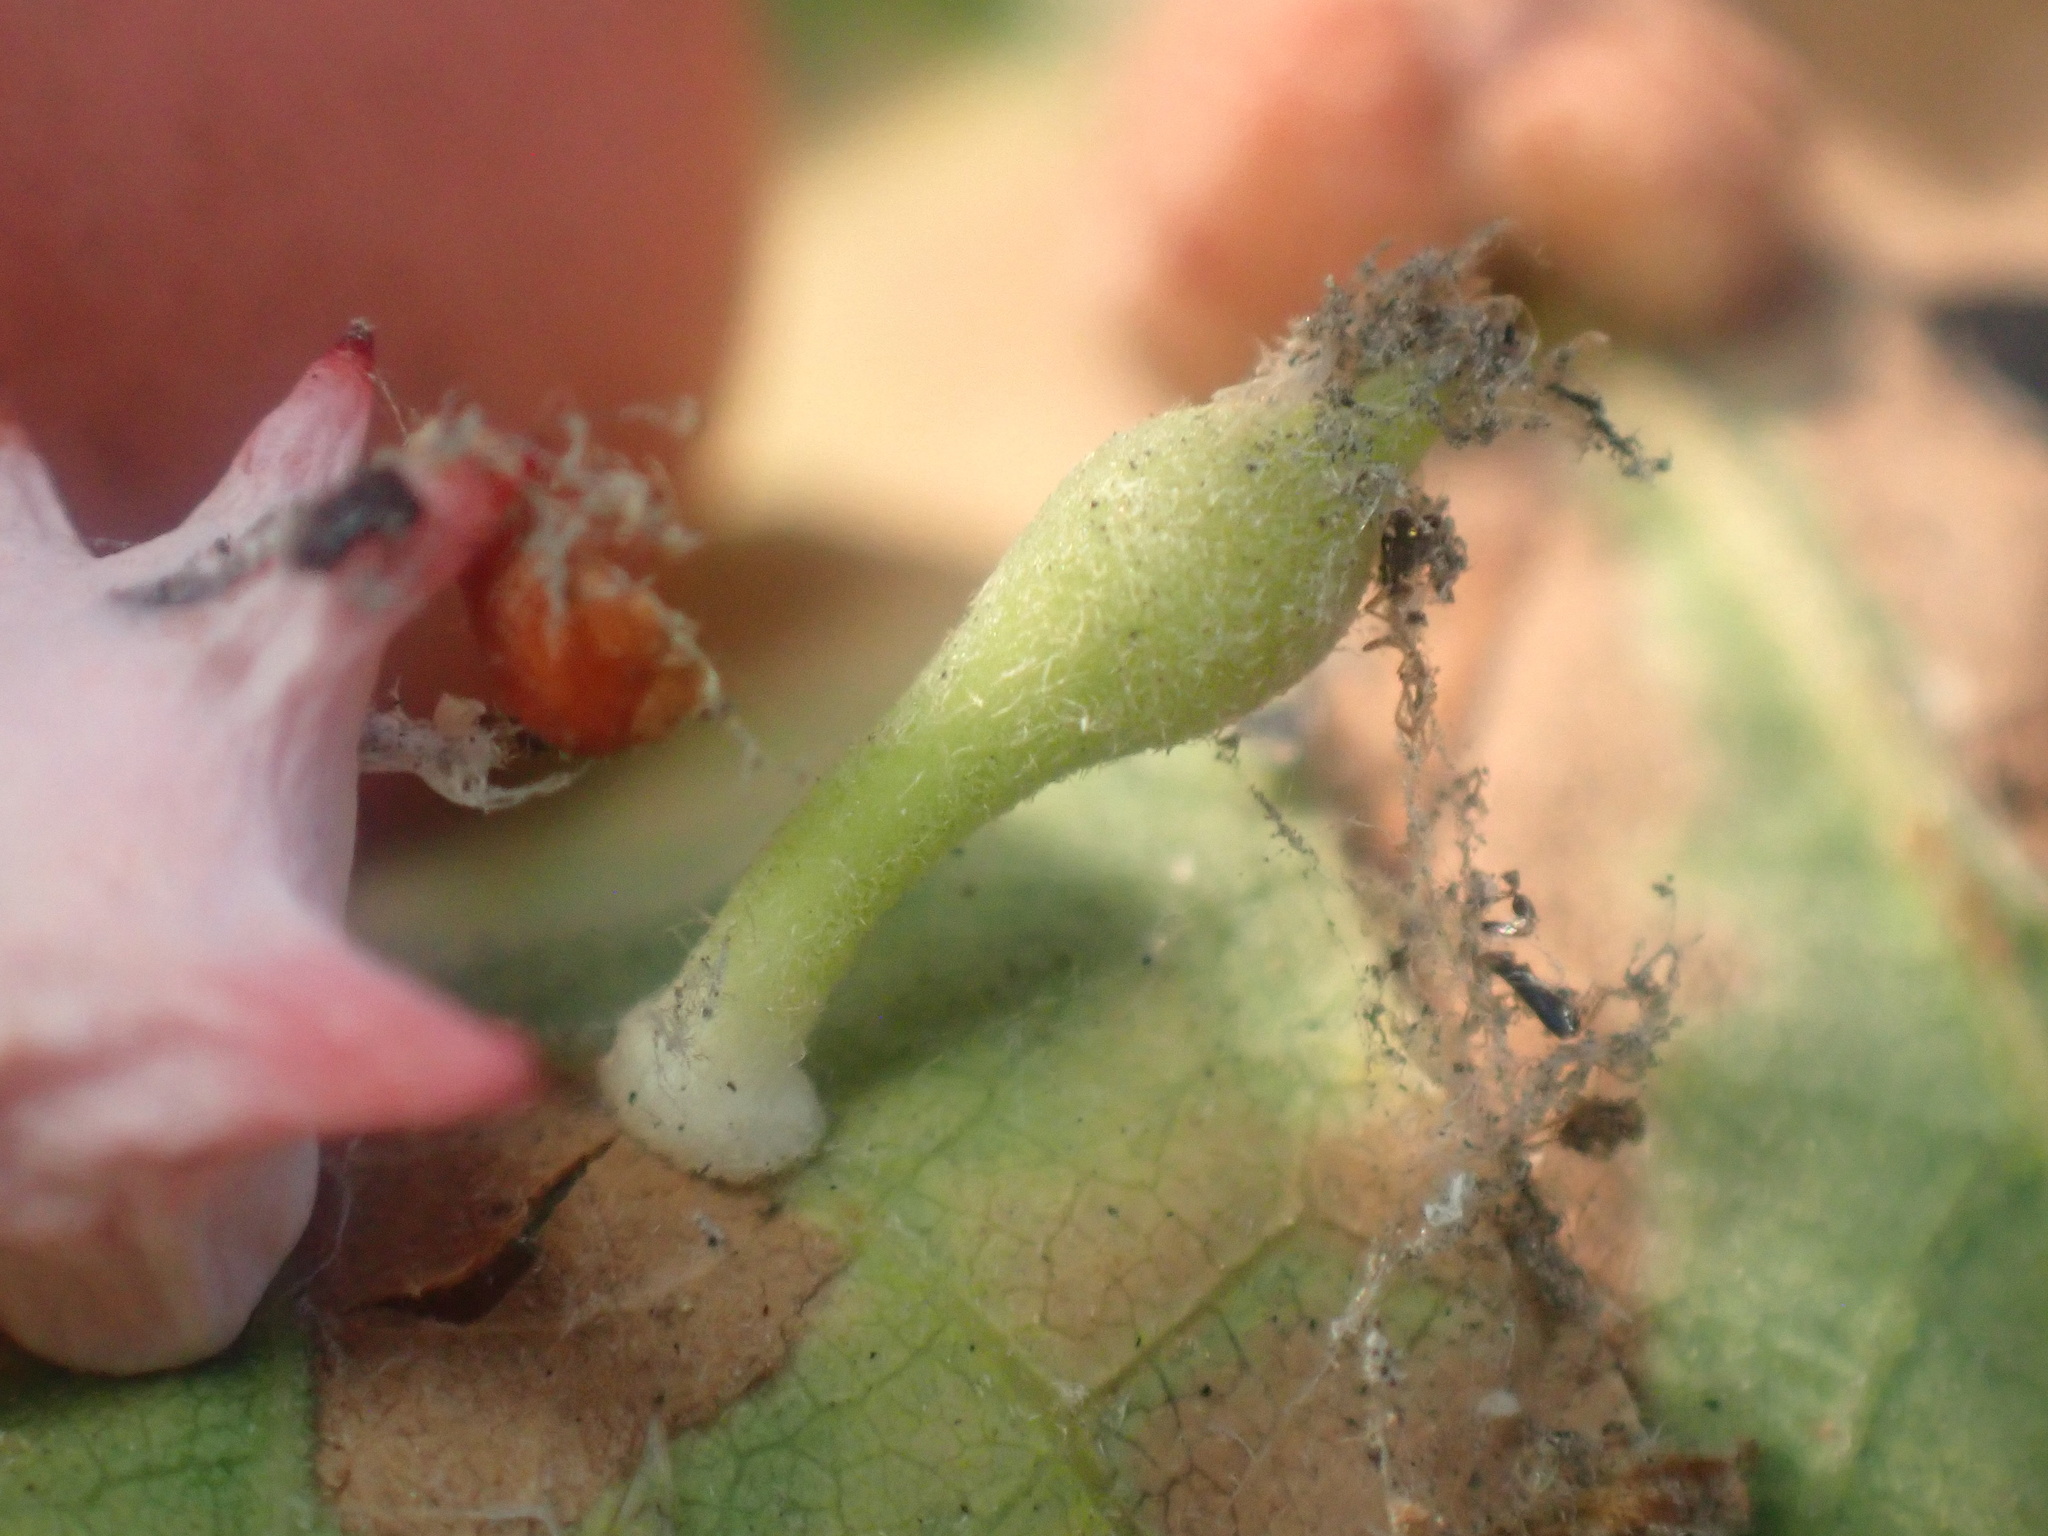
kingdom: Animalia
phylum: Arthropoda
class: Insecta
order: Hymenoptera
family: Cynipidae
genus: Atrusca
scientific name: Atrusca
